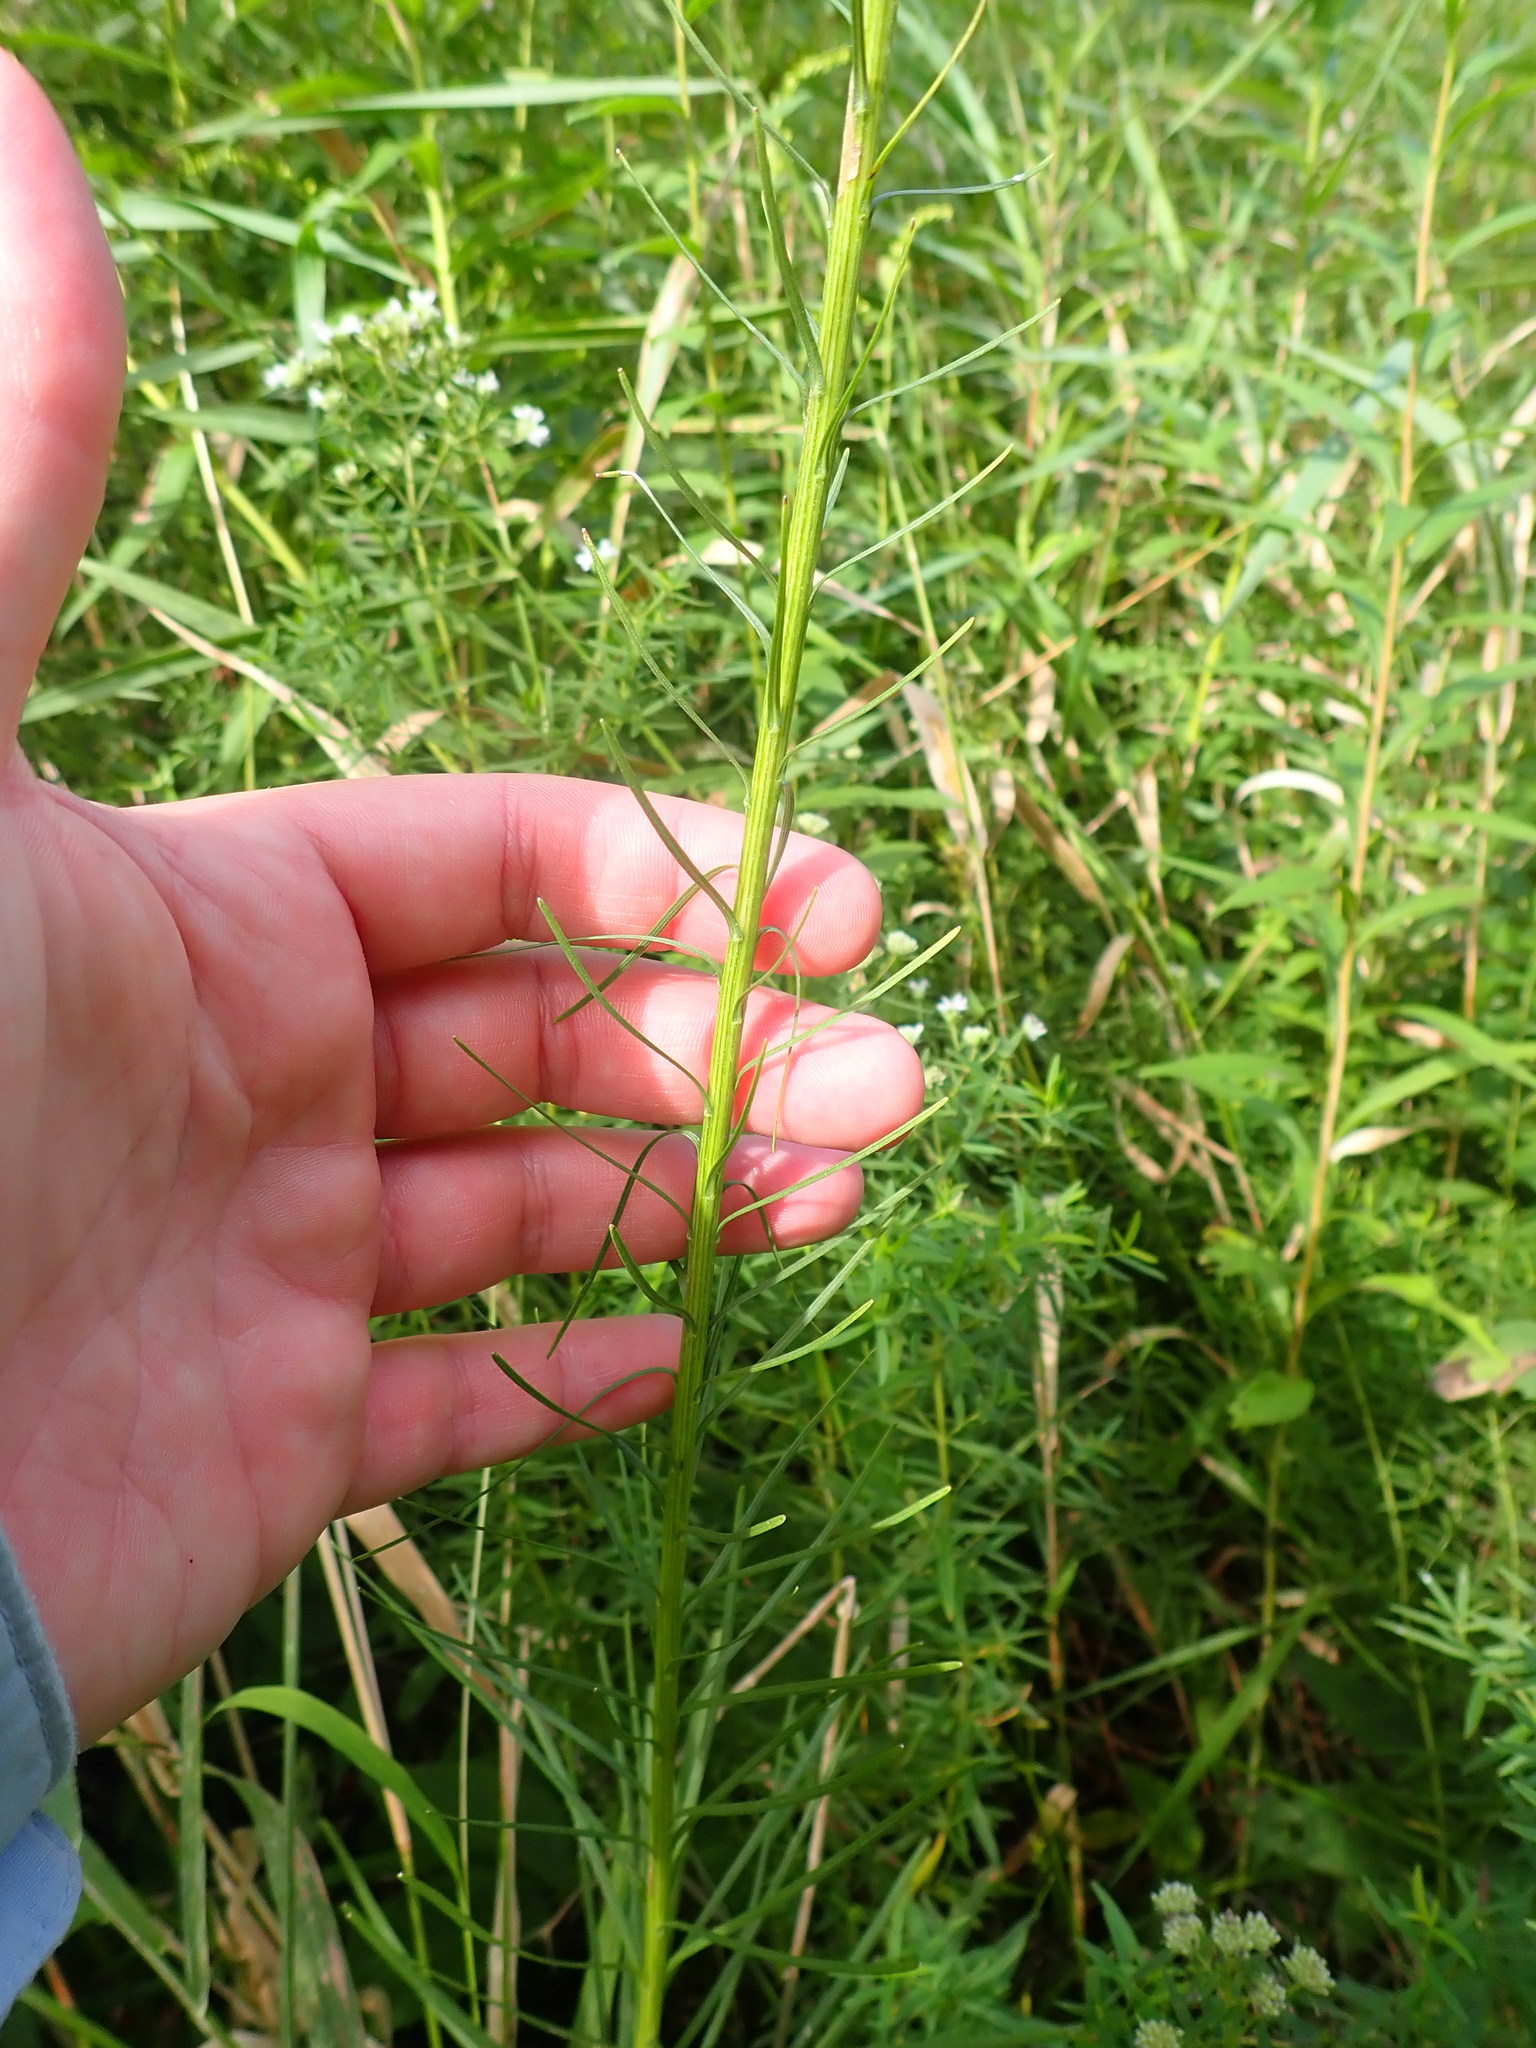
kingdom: Plantae
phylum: Tracheophyta
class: Magnoliopsida
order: Asterales
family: Asteraceae
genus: Liatris
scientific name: Liatris spicata
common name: Florist gayfeather
